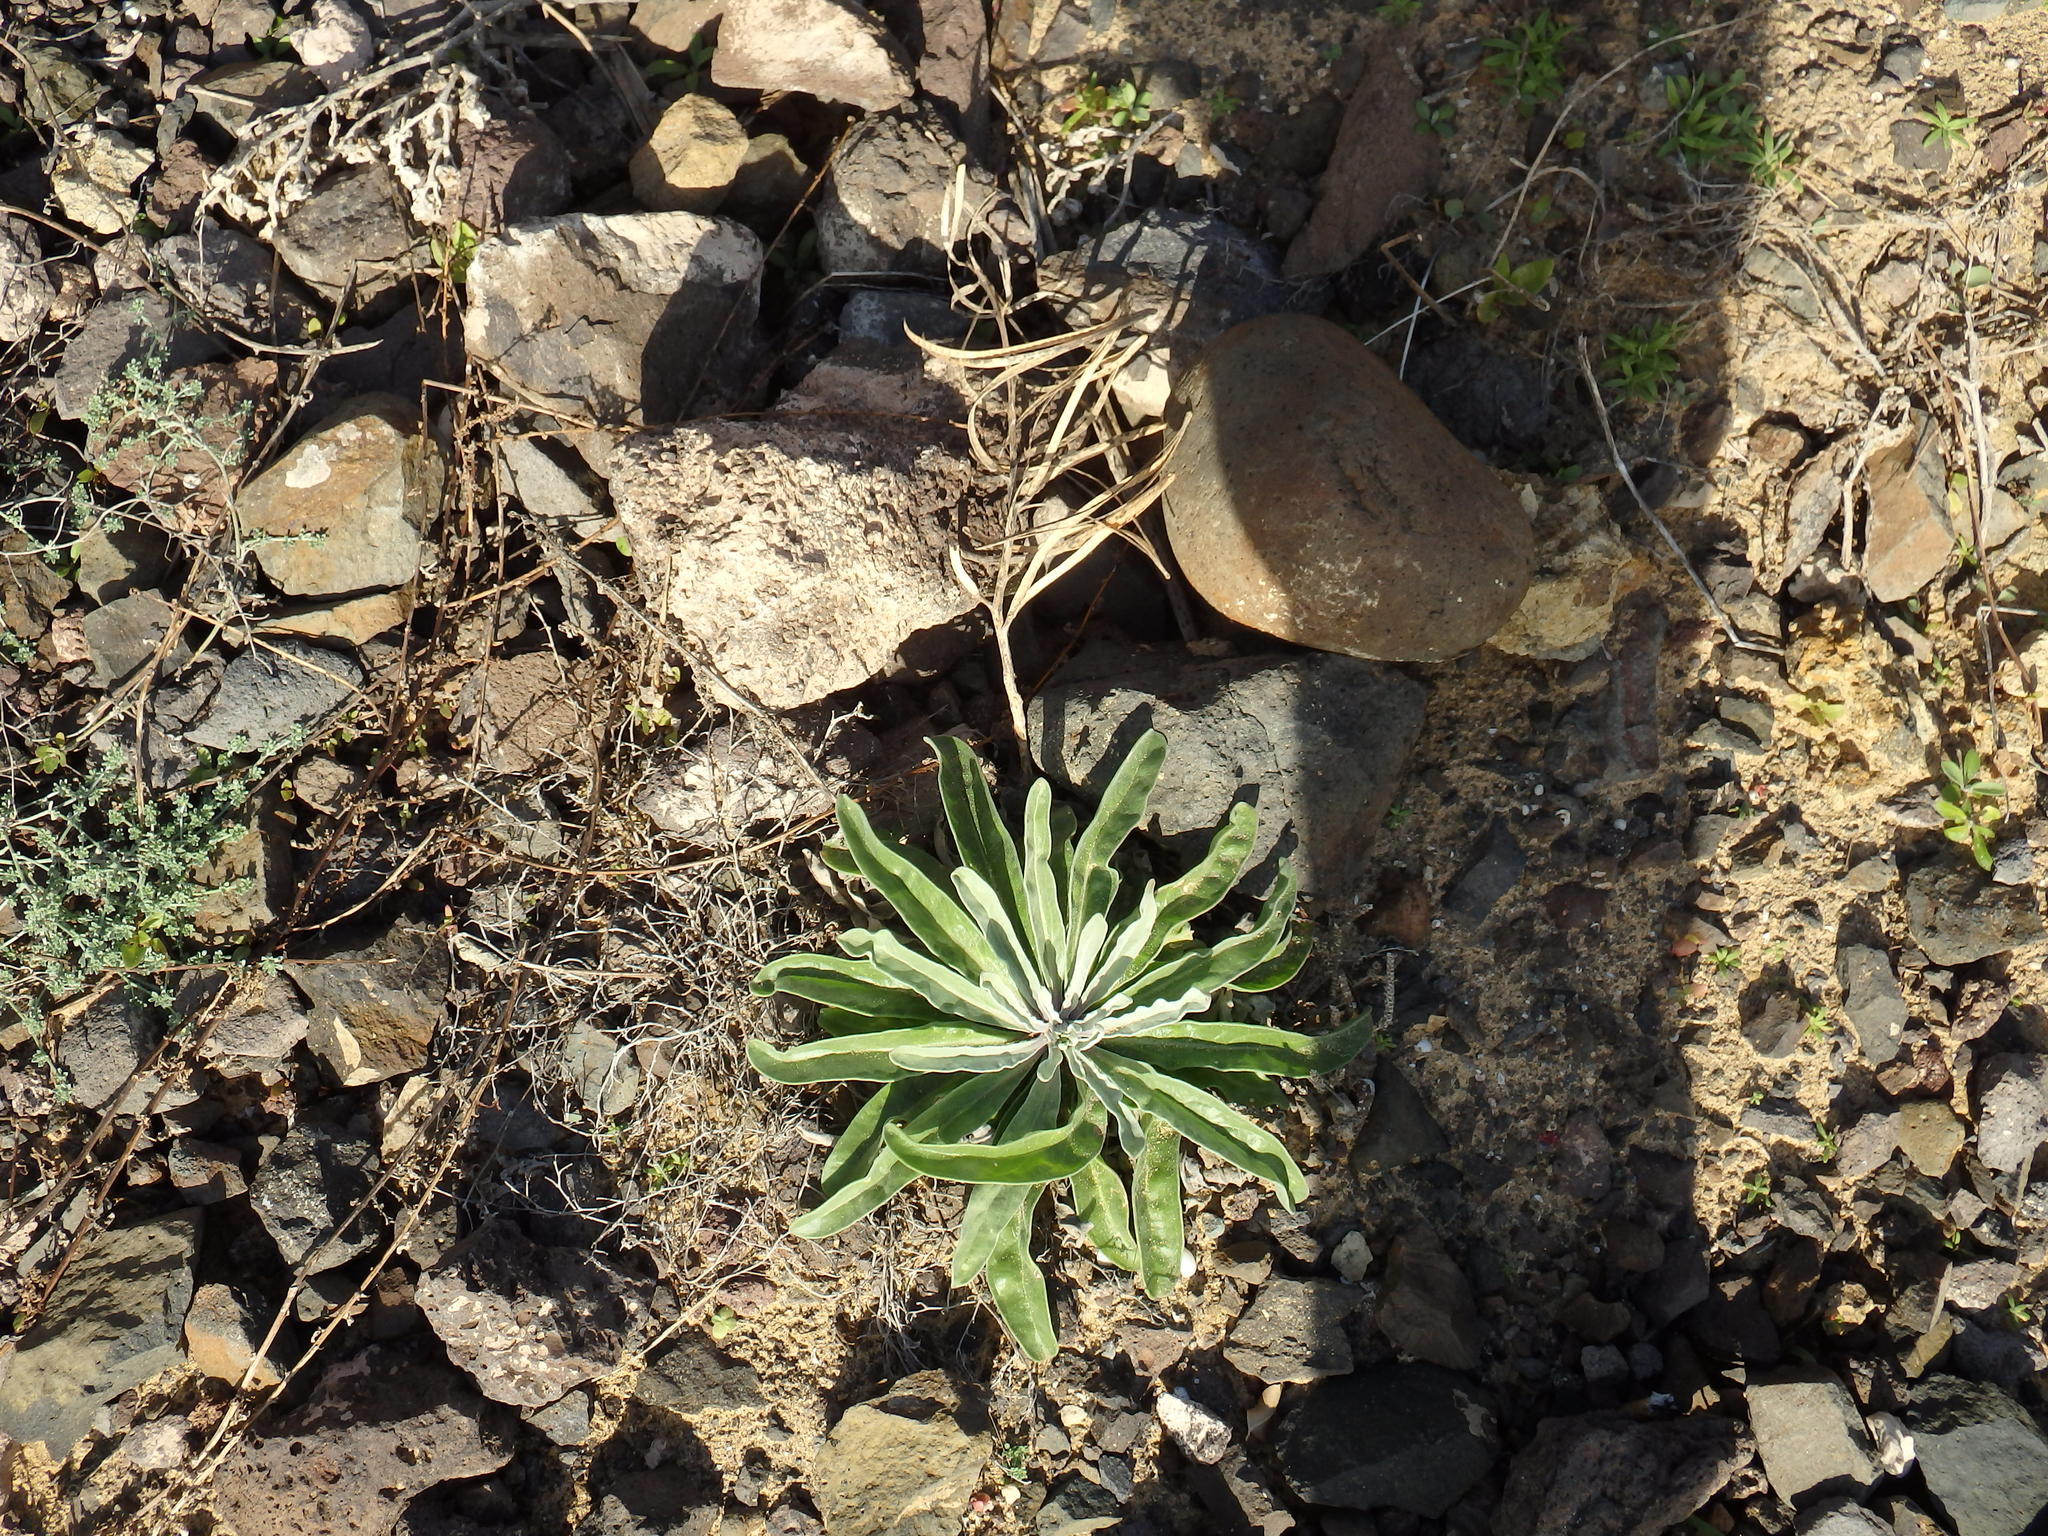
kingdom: Plantae
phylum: Tracheophyta
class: Magnoliopsida
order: Brassicales
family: Brassicaceae
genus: Matthiola
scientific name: Matthiola maderensis
